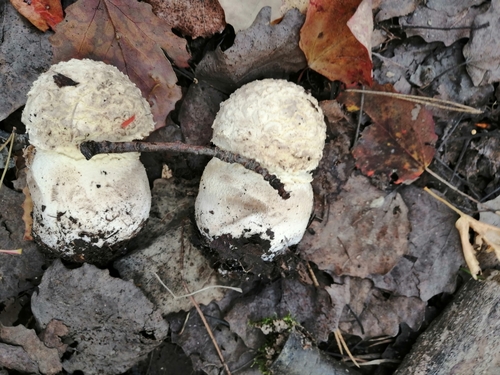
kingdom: Fungi
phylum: Basidiomycota
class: Agaricomycetes
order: Agaricales
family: Amanitaceae
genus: Amanita
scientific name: Amanita muscaria
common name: Fly agaric
